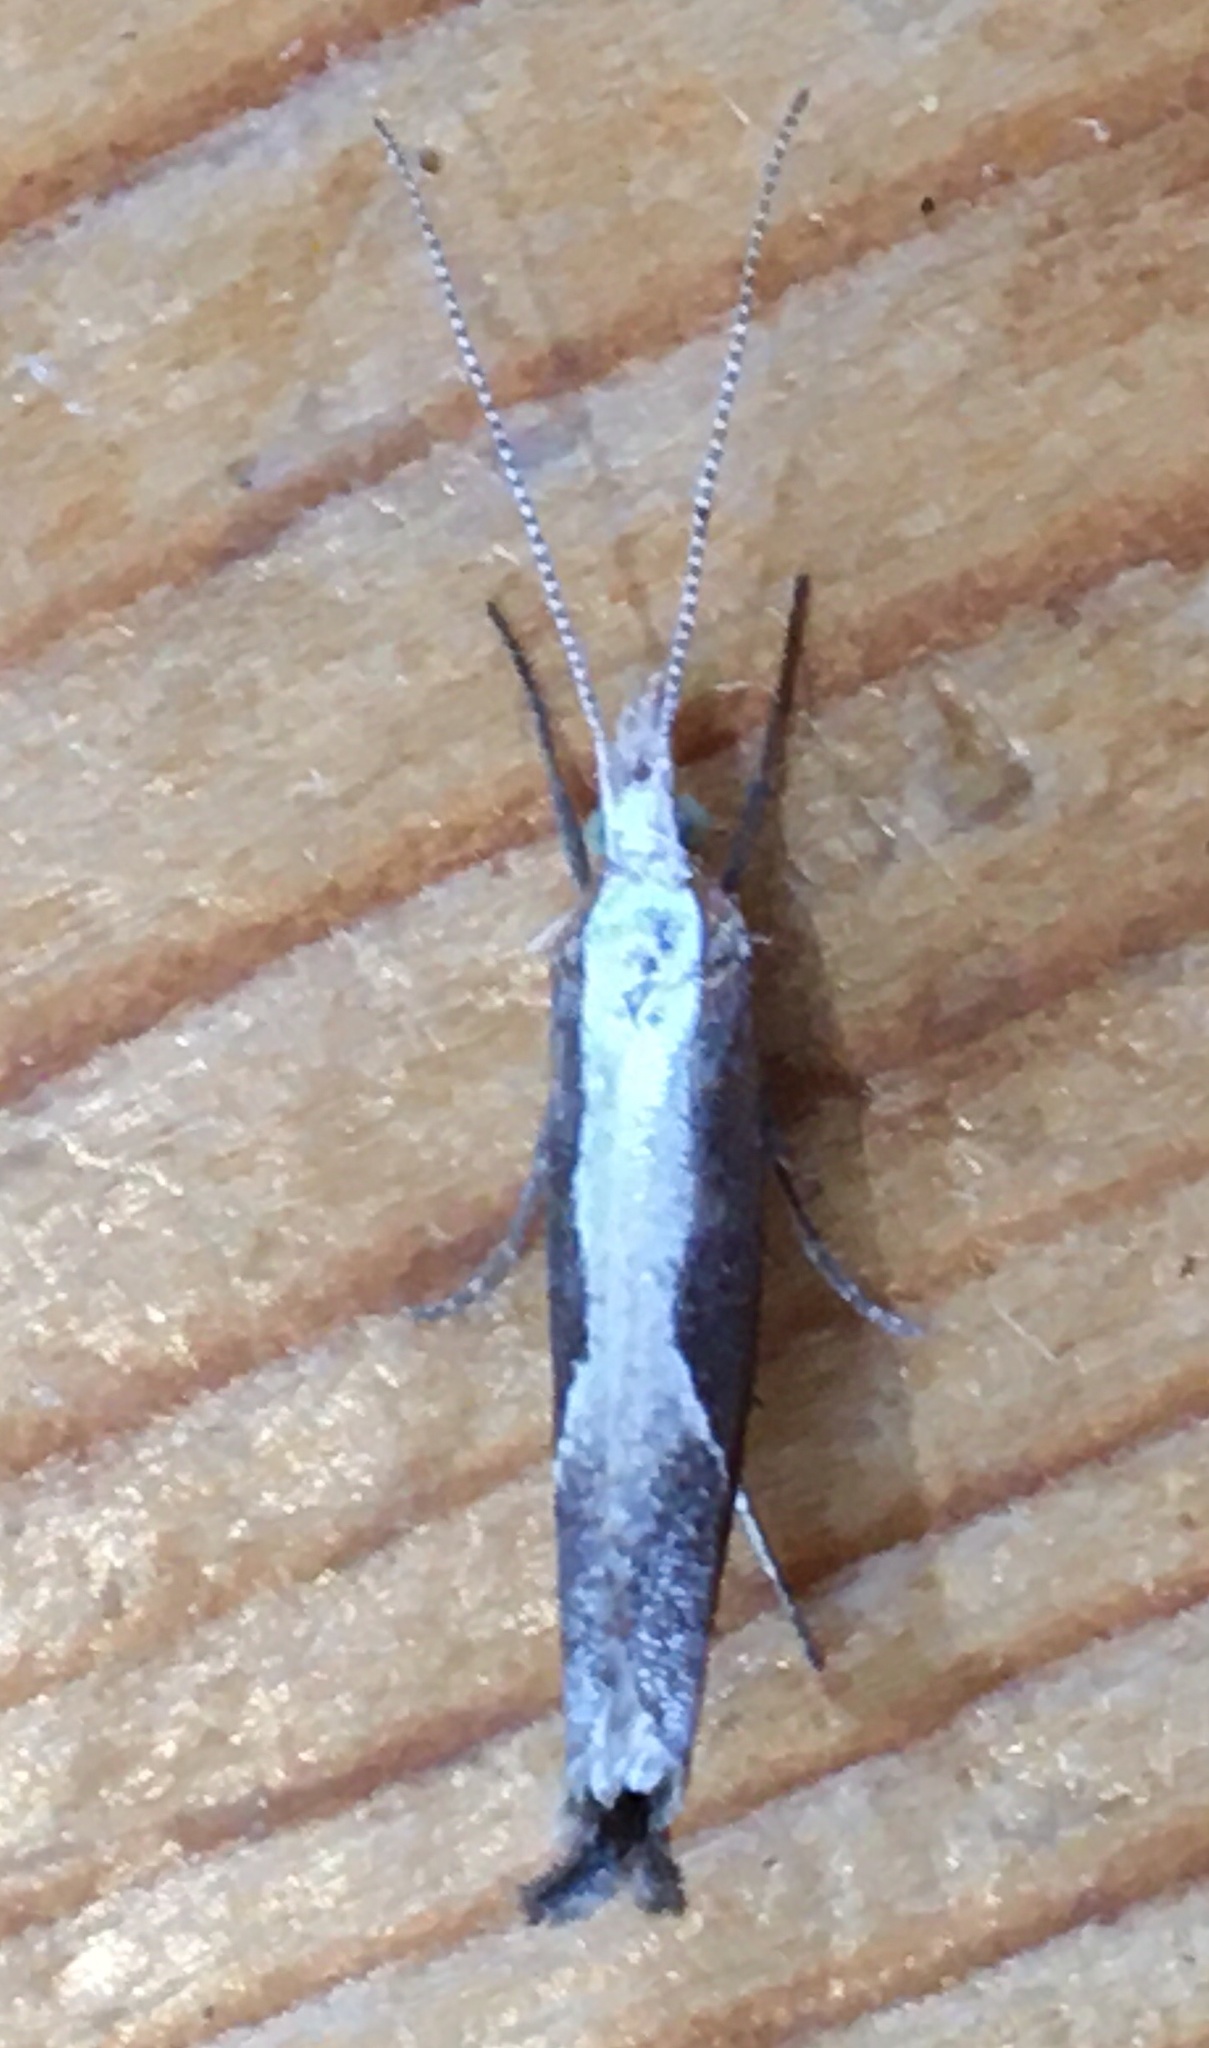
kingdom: Animalia
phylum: Arthropoda
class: Insecta
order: Lepidoptera
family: Ypsolophidae
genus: Ypsolopha
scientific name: Ypsolopha dentella
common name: Honeysuckle moth
